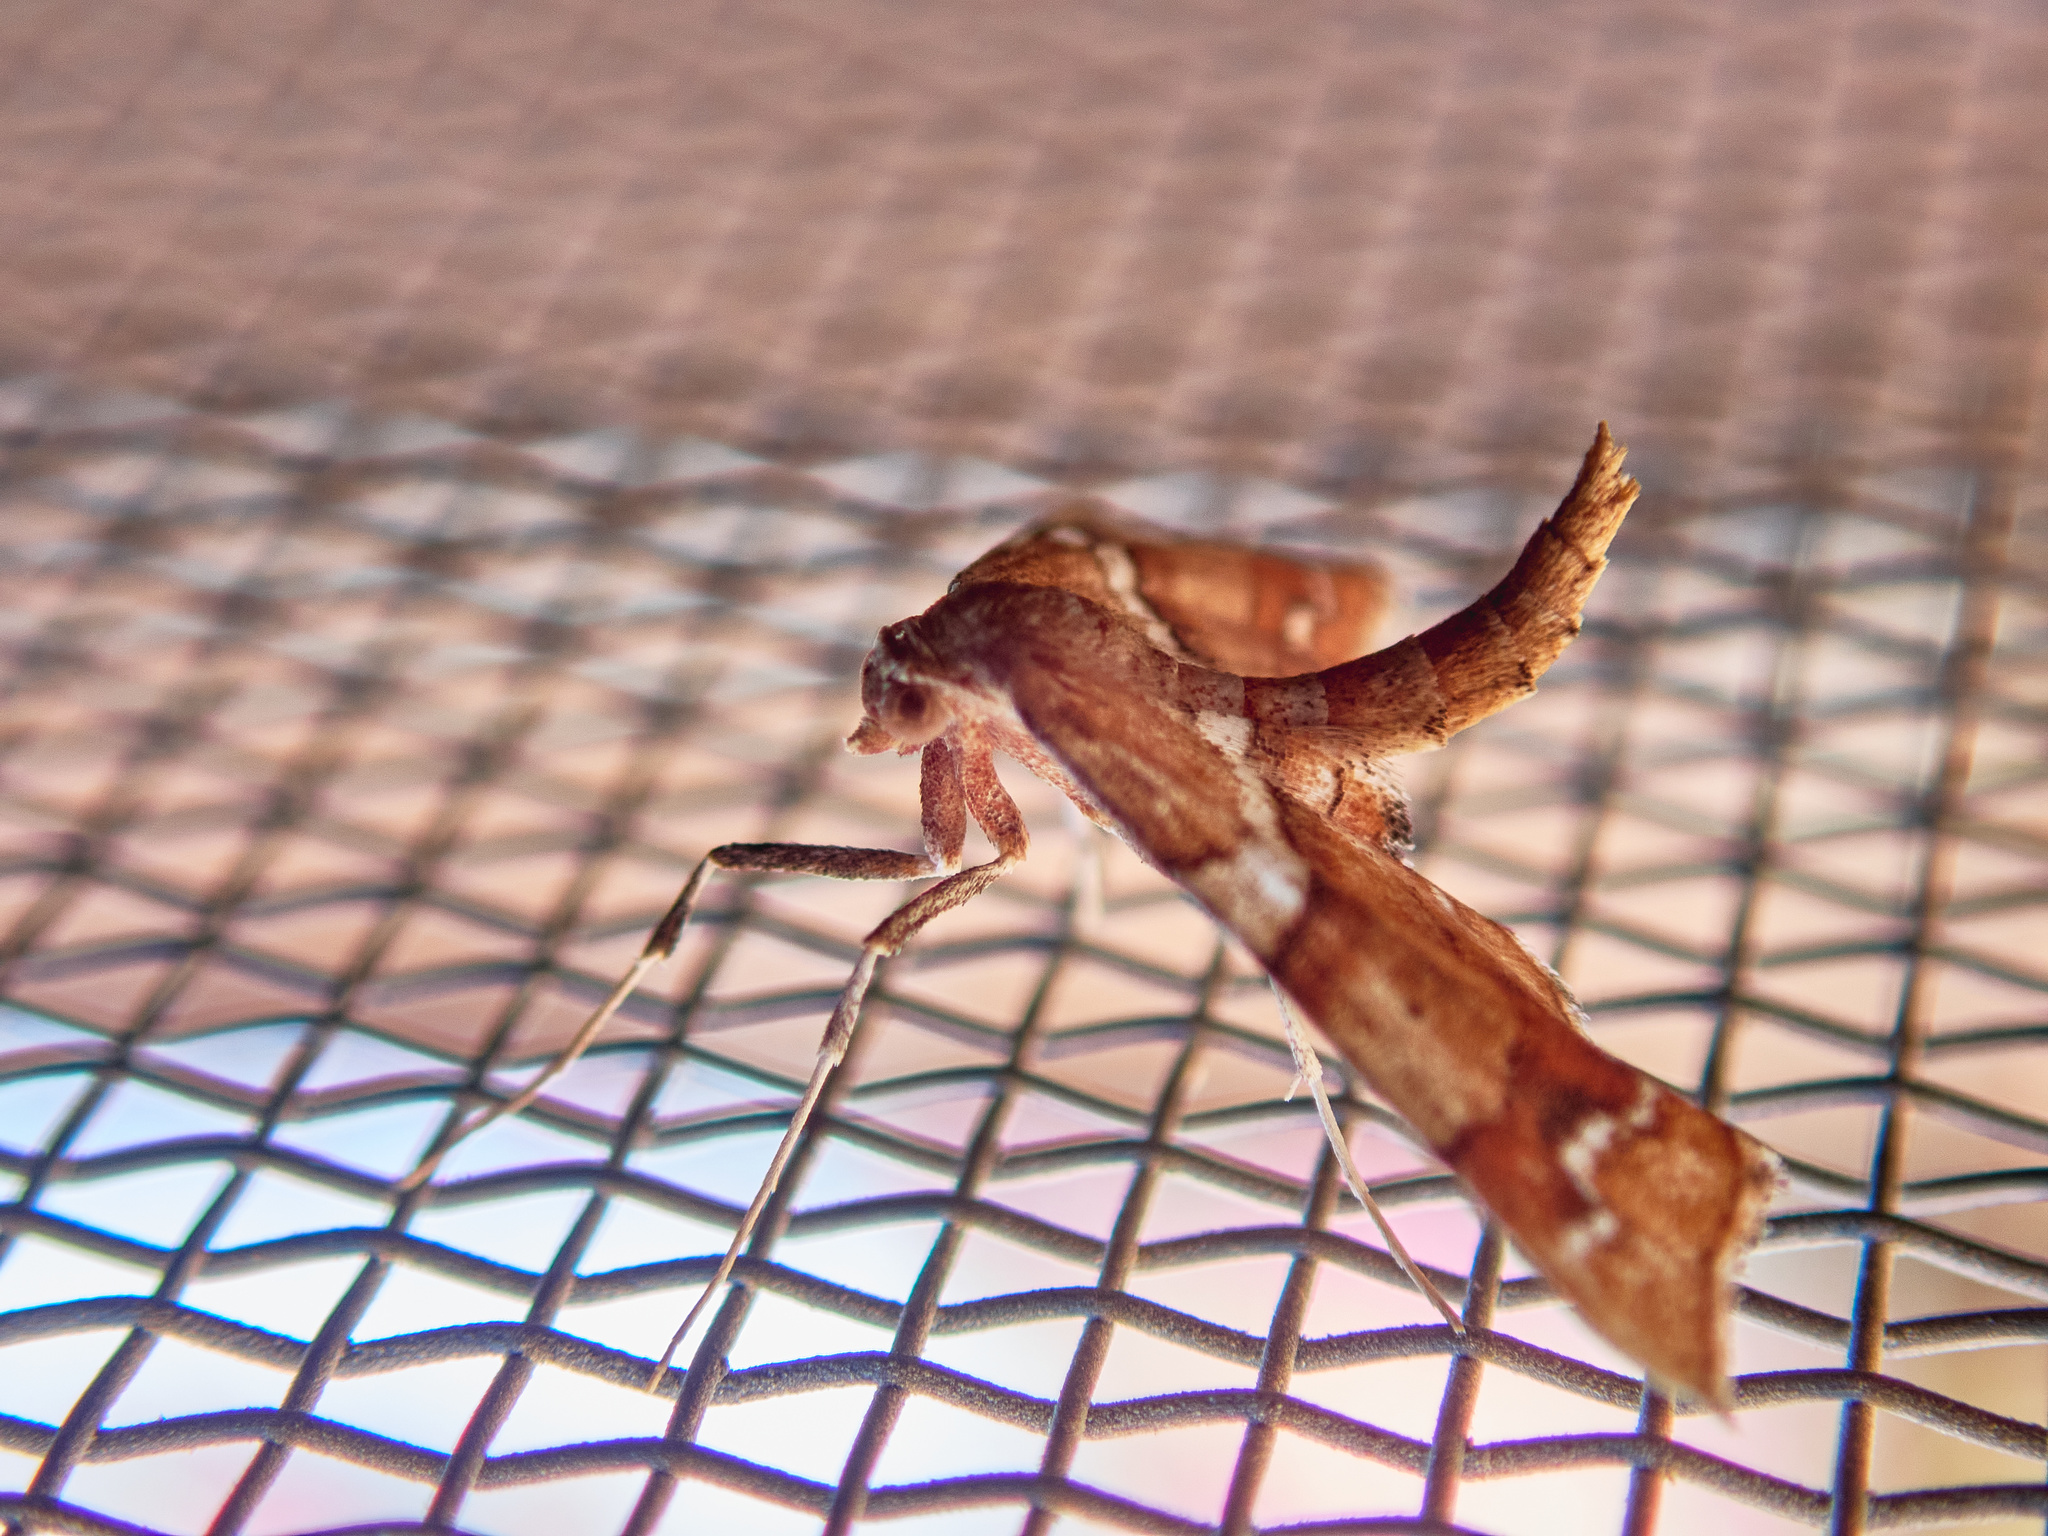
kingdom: Animalia
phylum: Arthropoda
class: Insecta
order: Lepidoptera
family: Geometridae
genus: Odontoptila
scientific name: Odontoptila obrimo
